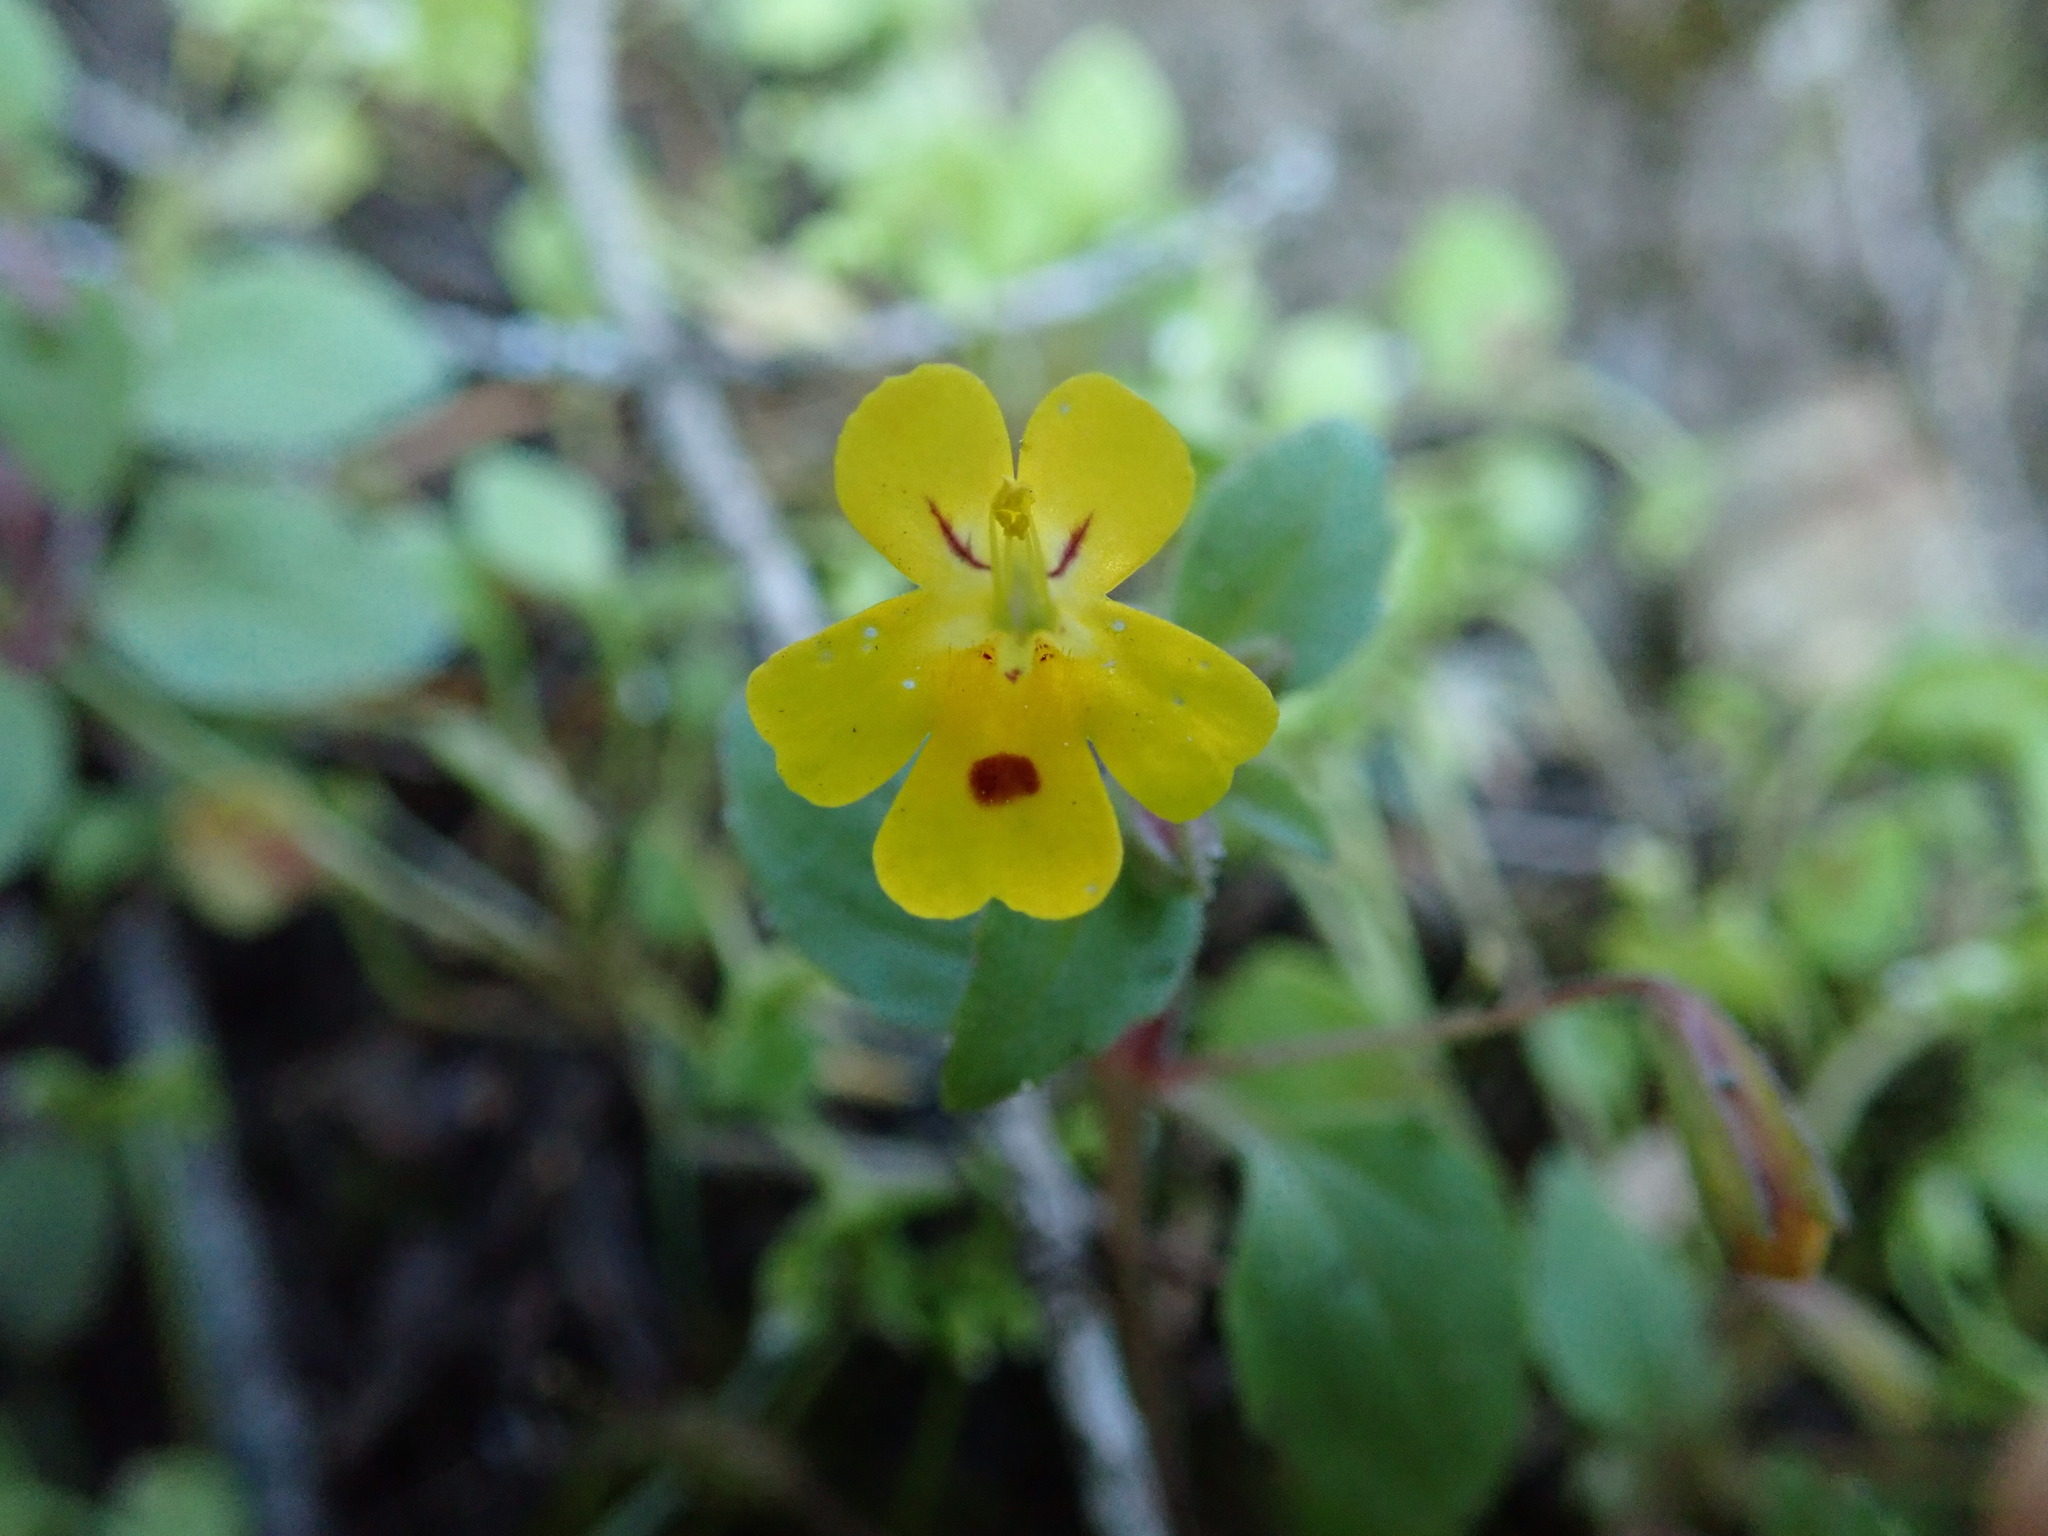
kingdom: Plantae
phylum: Tracheophyta
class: Magnoliopsida
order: Lamiales
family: Phrymaceae
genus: Erythranthe
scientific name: Erythranthe alsinoides
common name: Chickweed monkeyflower
